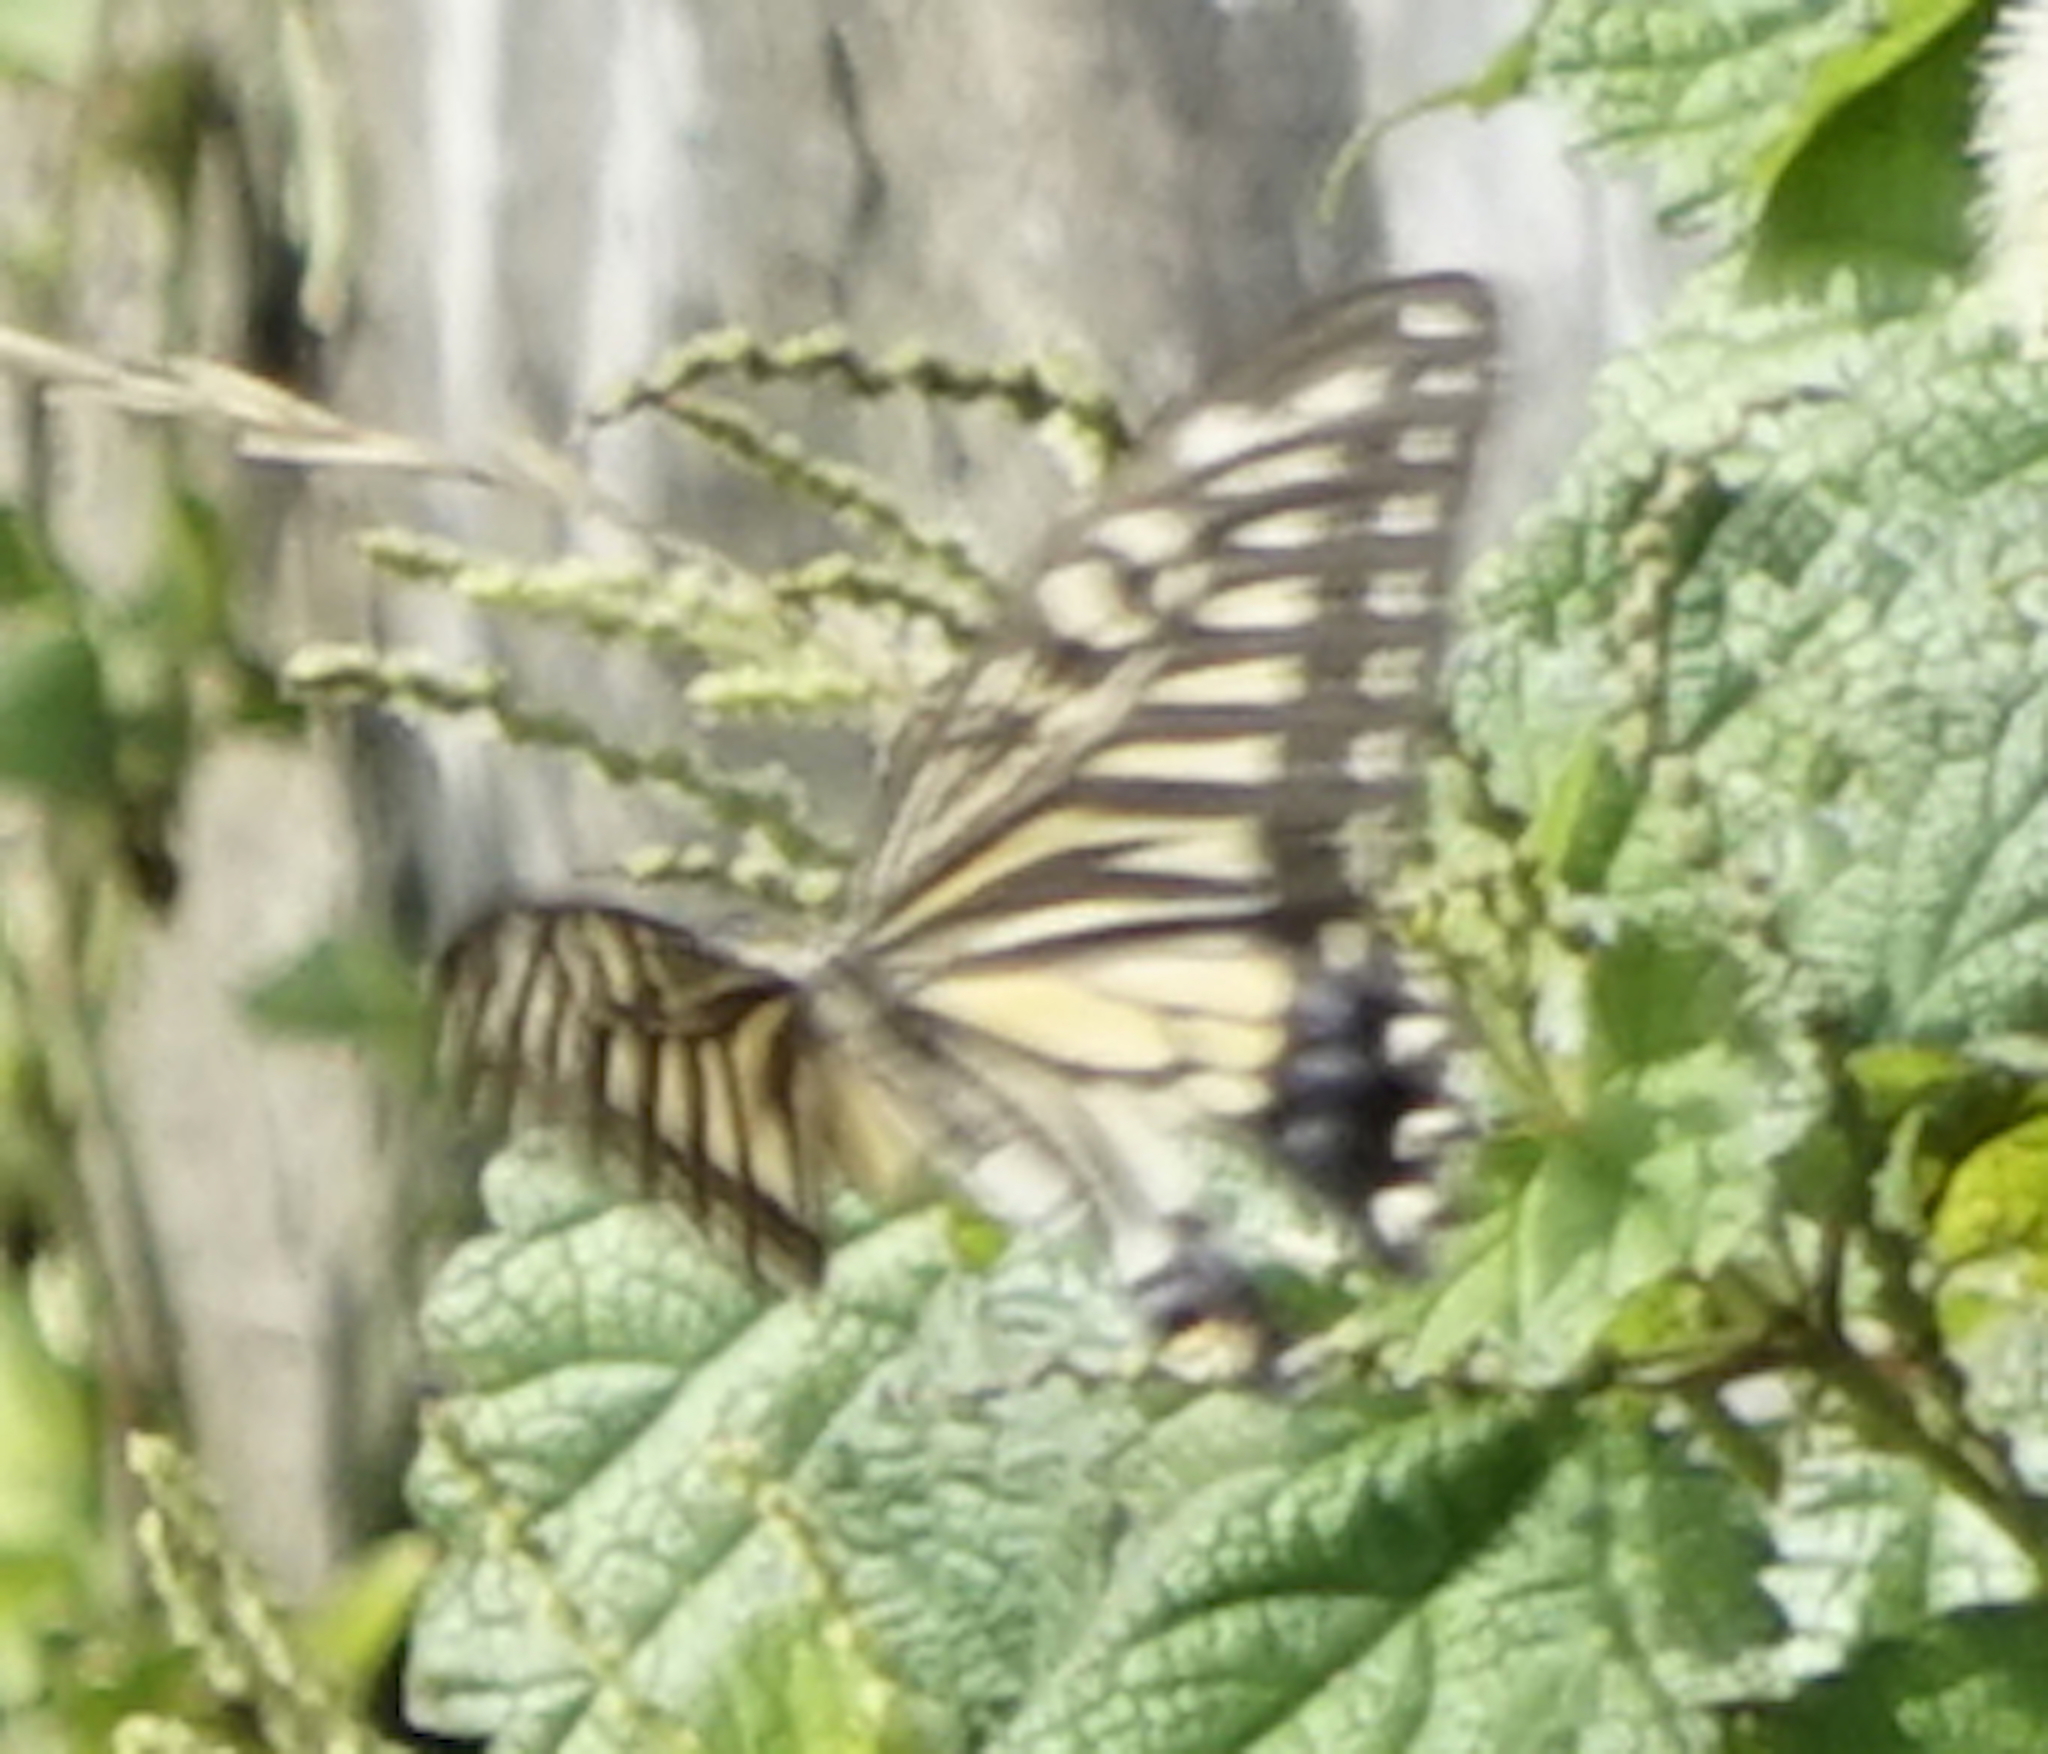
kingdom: Animalia
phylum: Arthropoda
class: Insecta
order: Lepidoptera
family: Papilionidae
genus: Papilio
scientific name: Papilio xuthus
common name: Asian swallowtail
